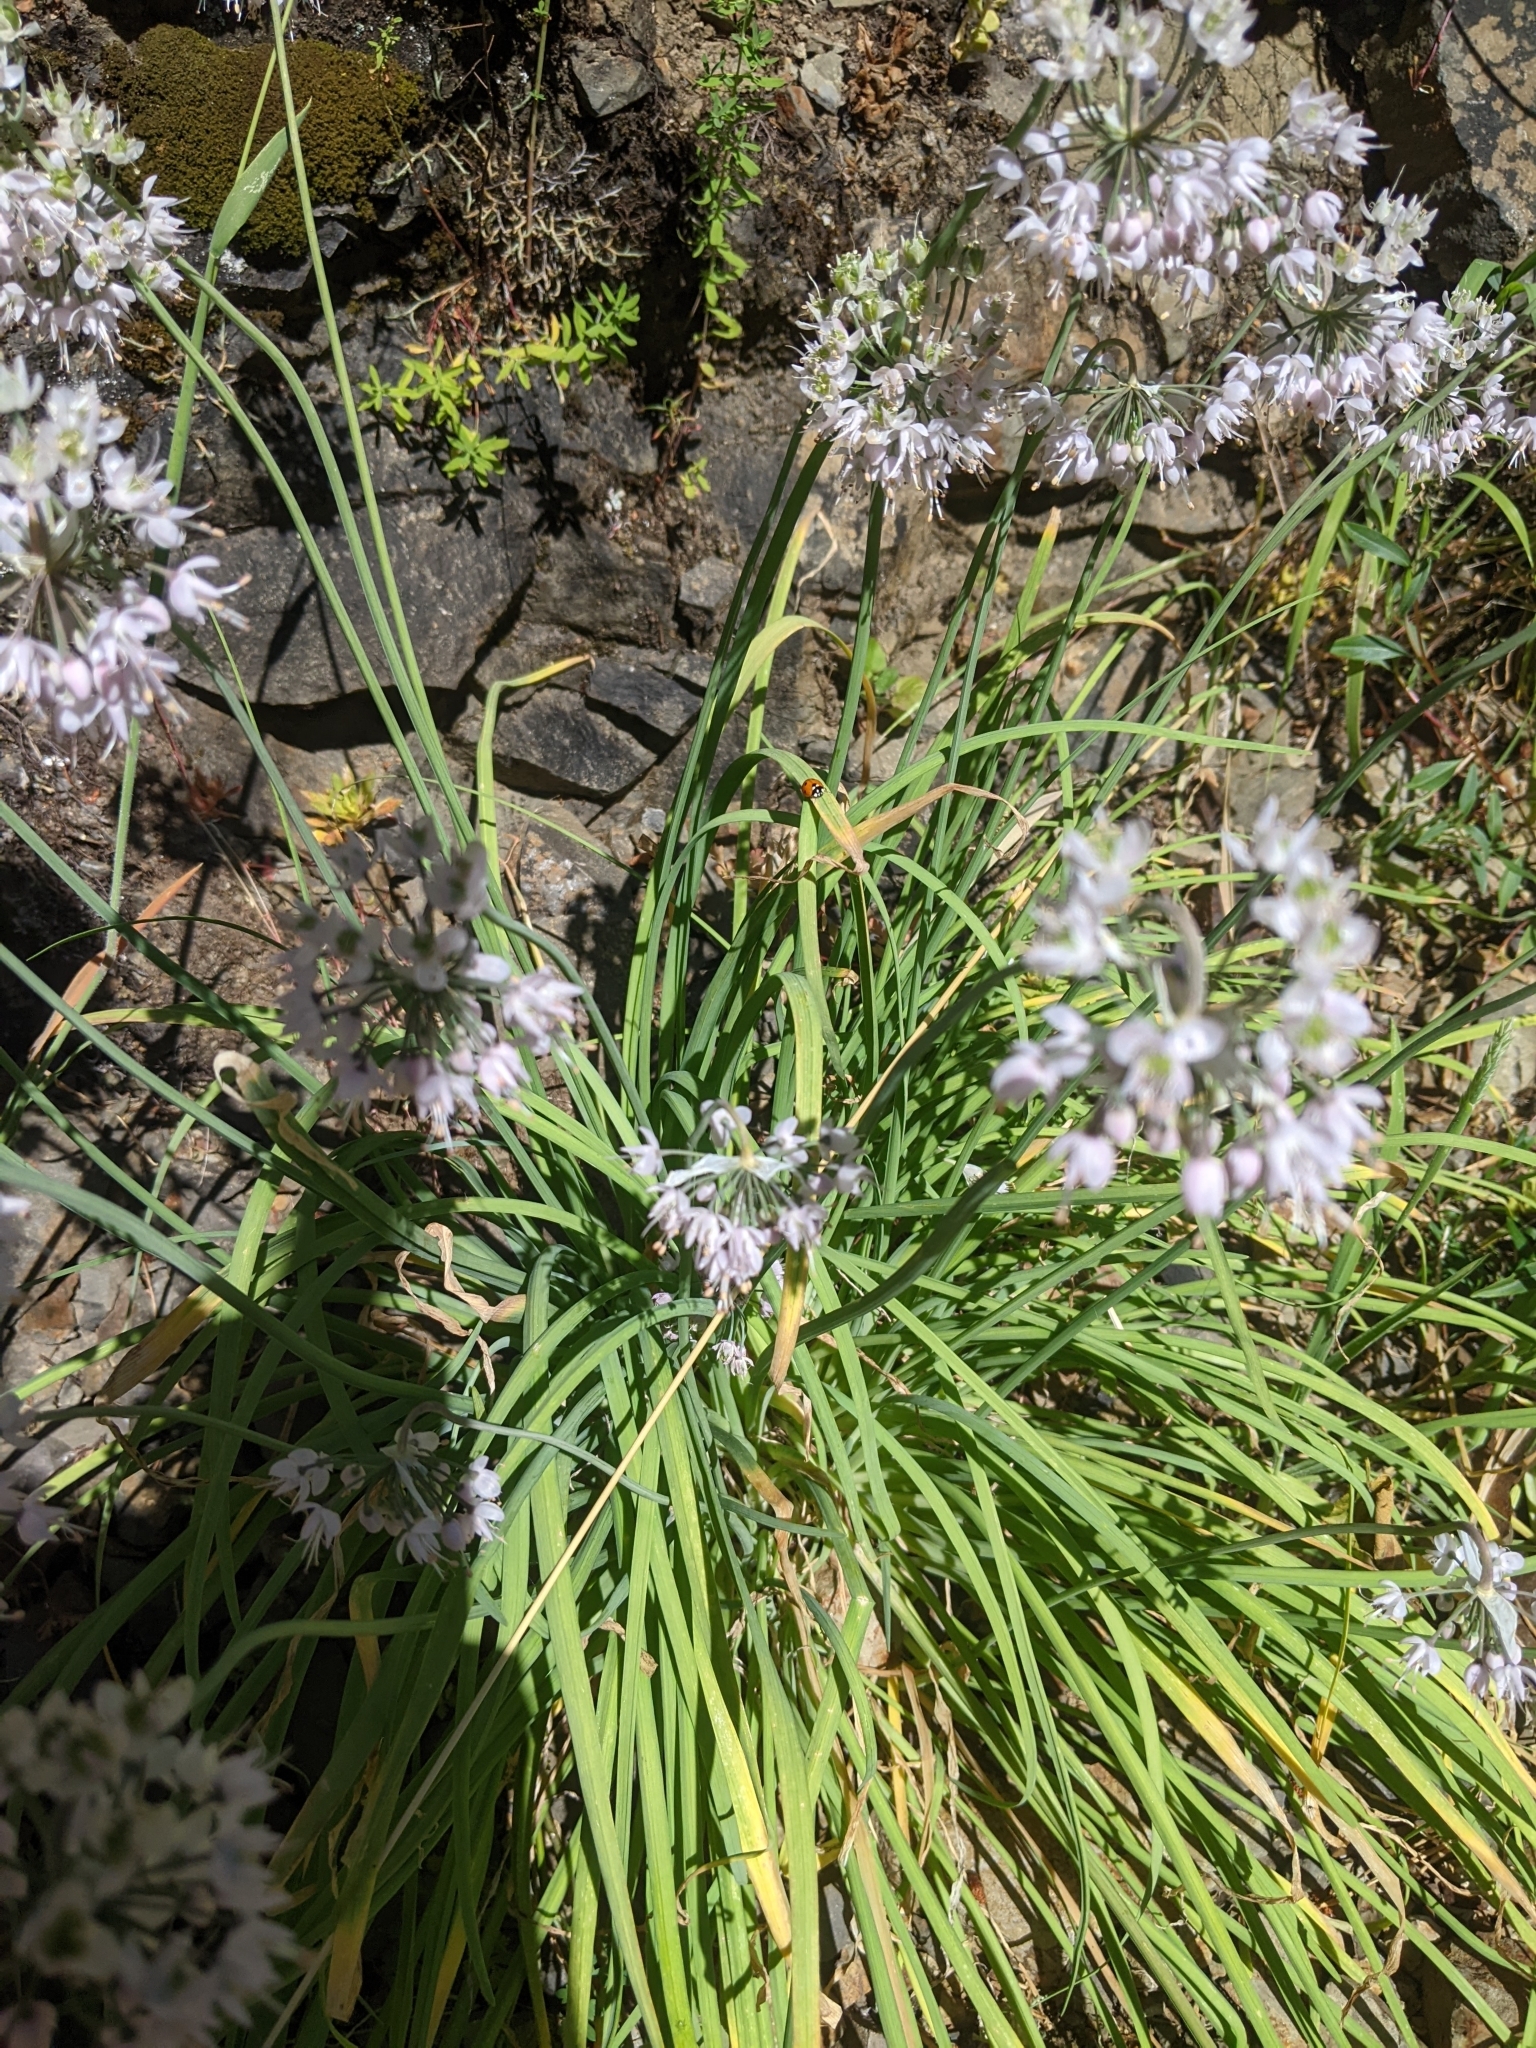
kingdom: Plantae
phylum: Tracheophyta
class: Liliopsida
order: Asparagales
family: Amaryllidaceae
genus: Allium
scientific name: Allium cernuum
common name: Nodding onion
